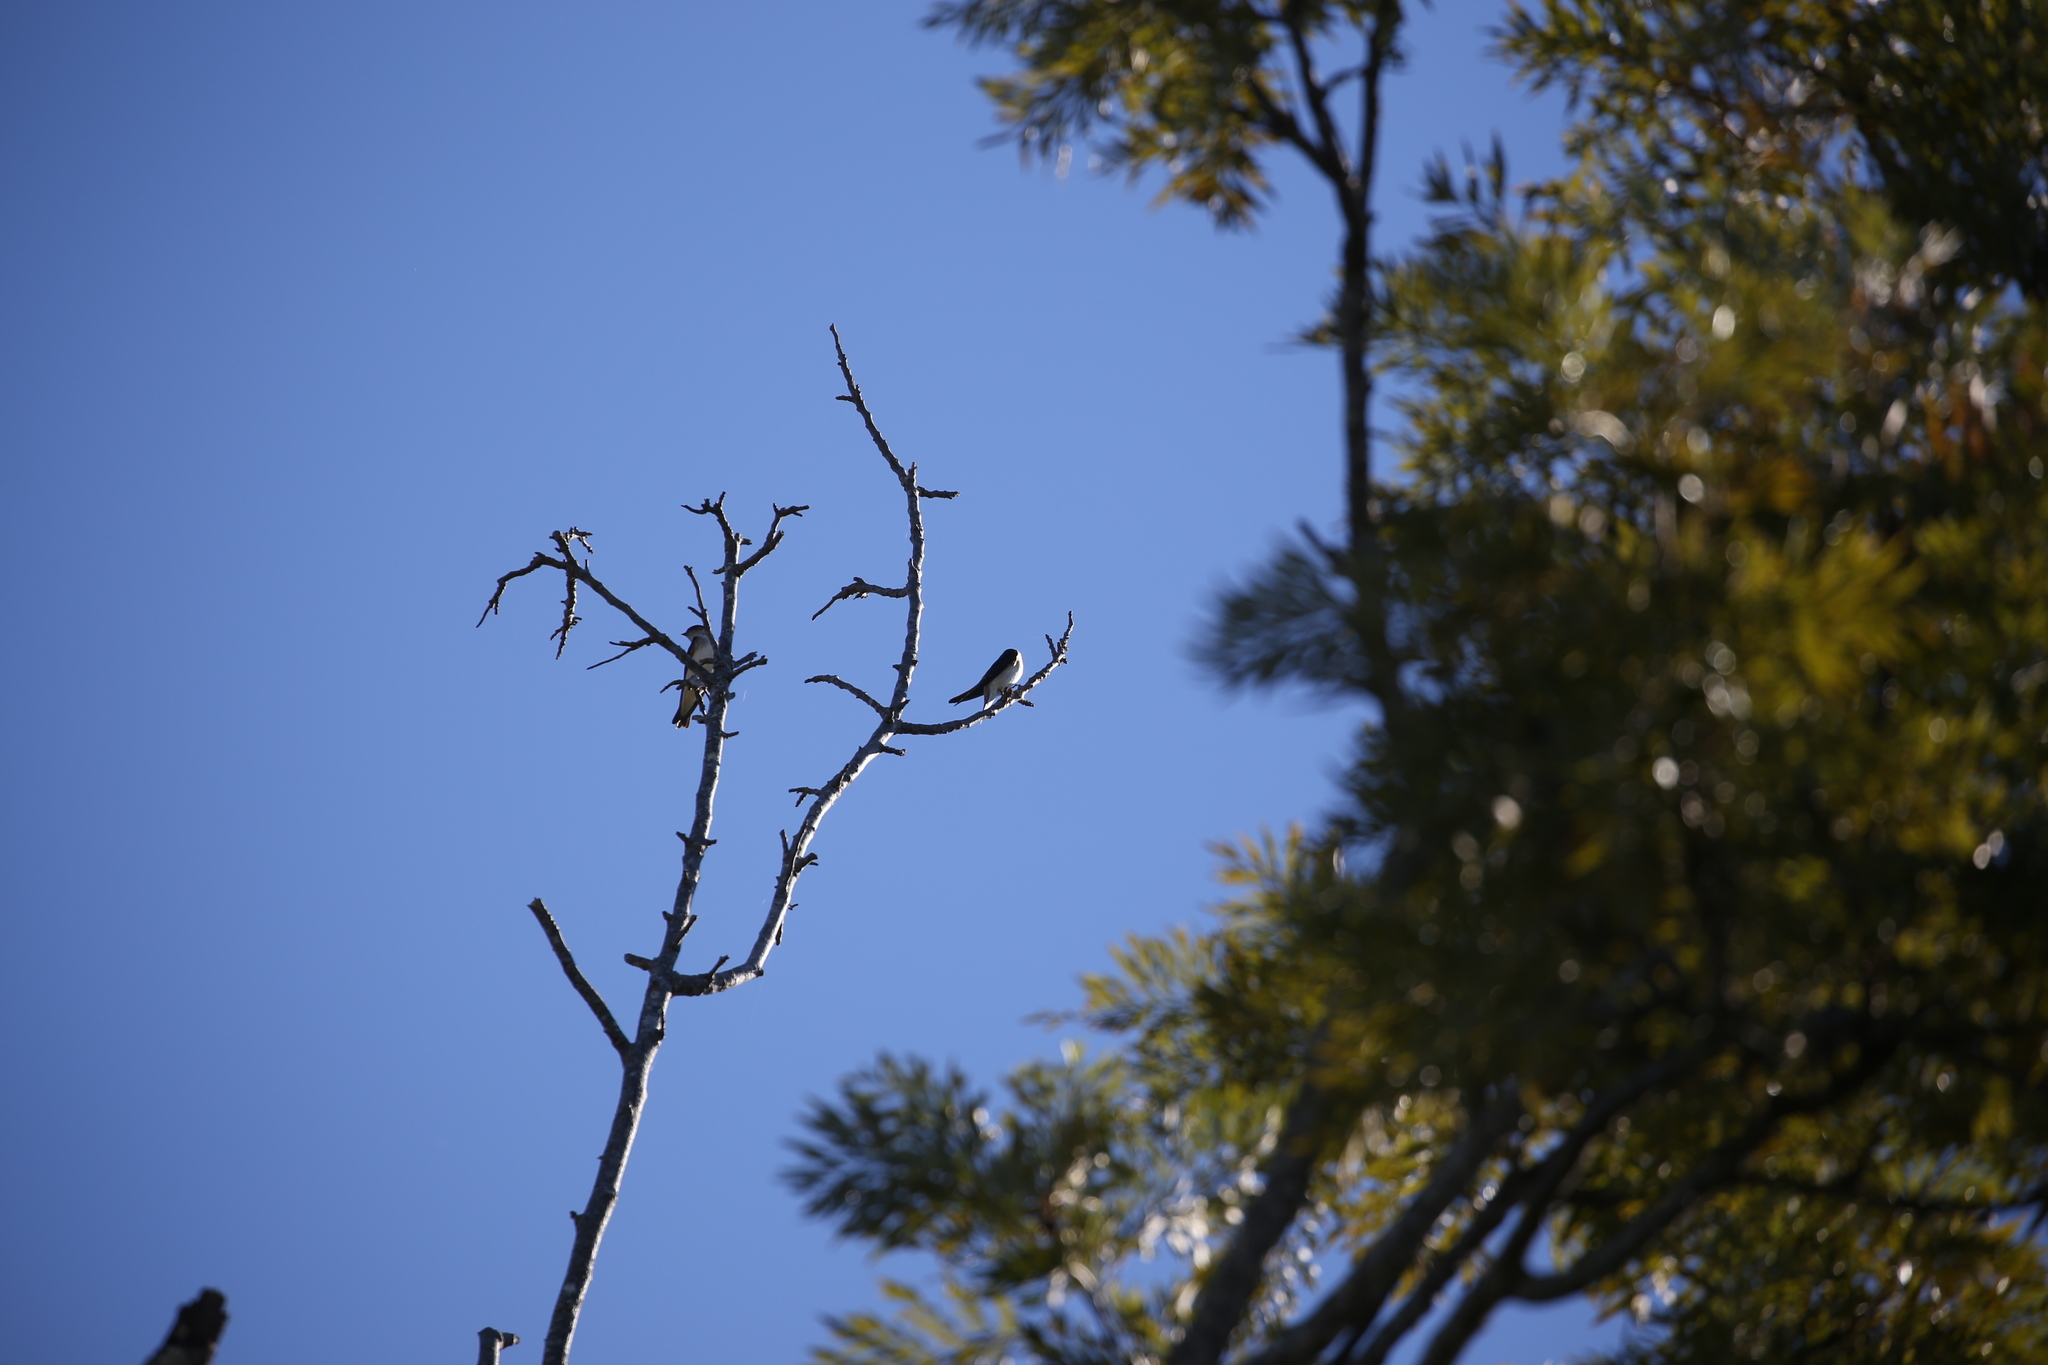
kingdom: Animalia
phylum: Chordata
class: Aves
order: Passeriformes
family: Hirundinidae
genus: Petrochelidon
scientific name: Petrochelidon nigricans
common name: Tree martin
